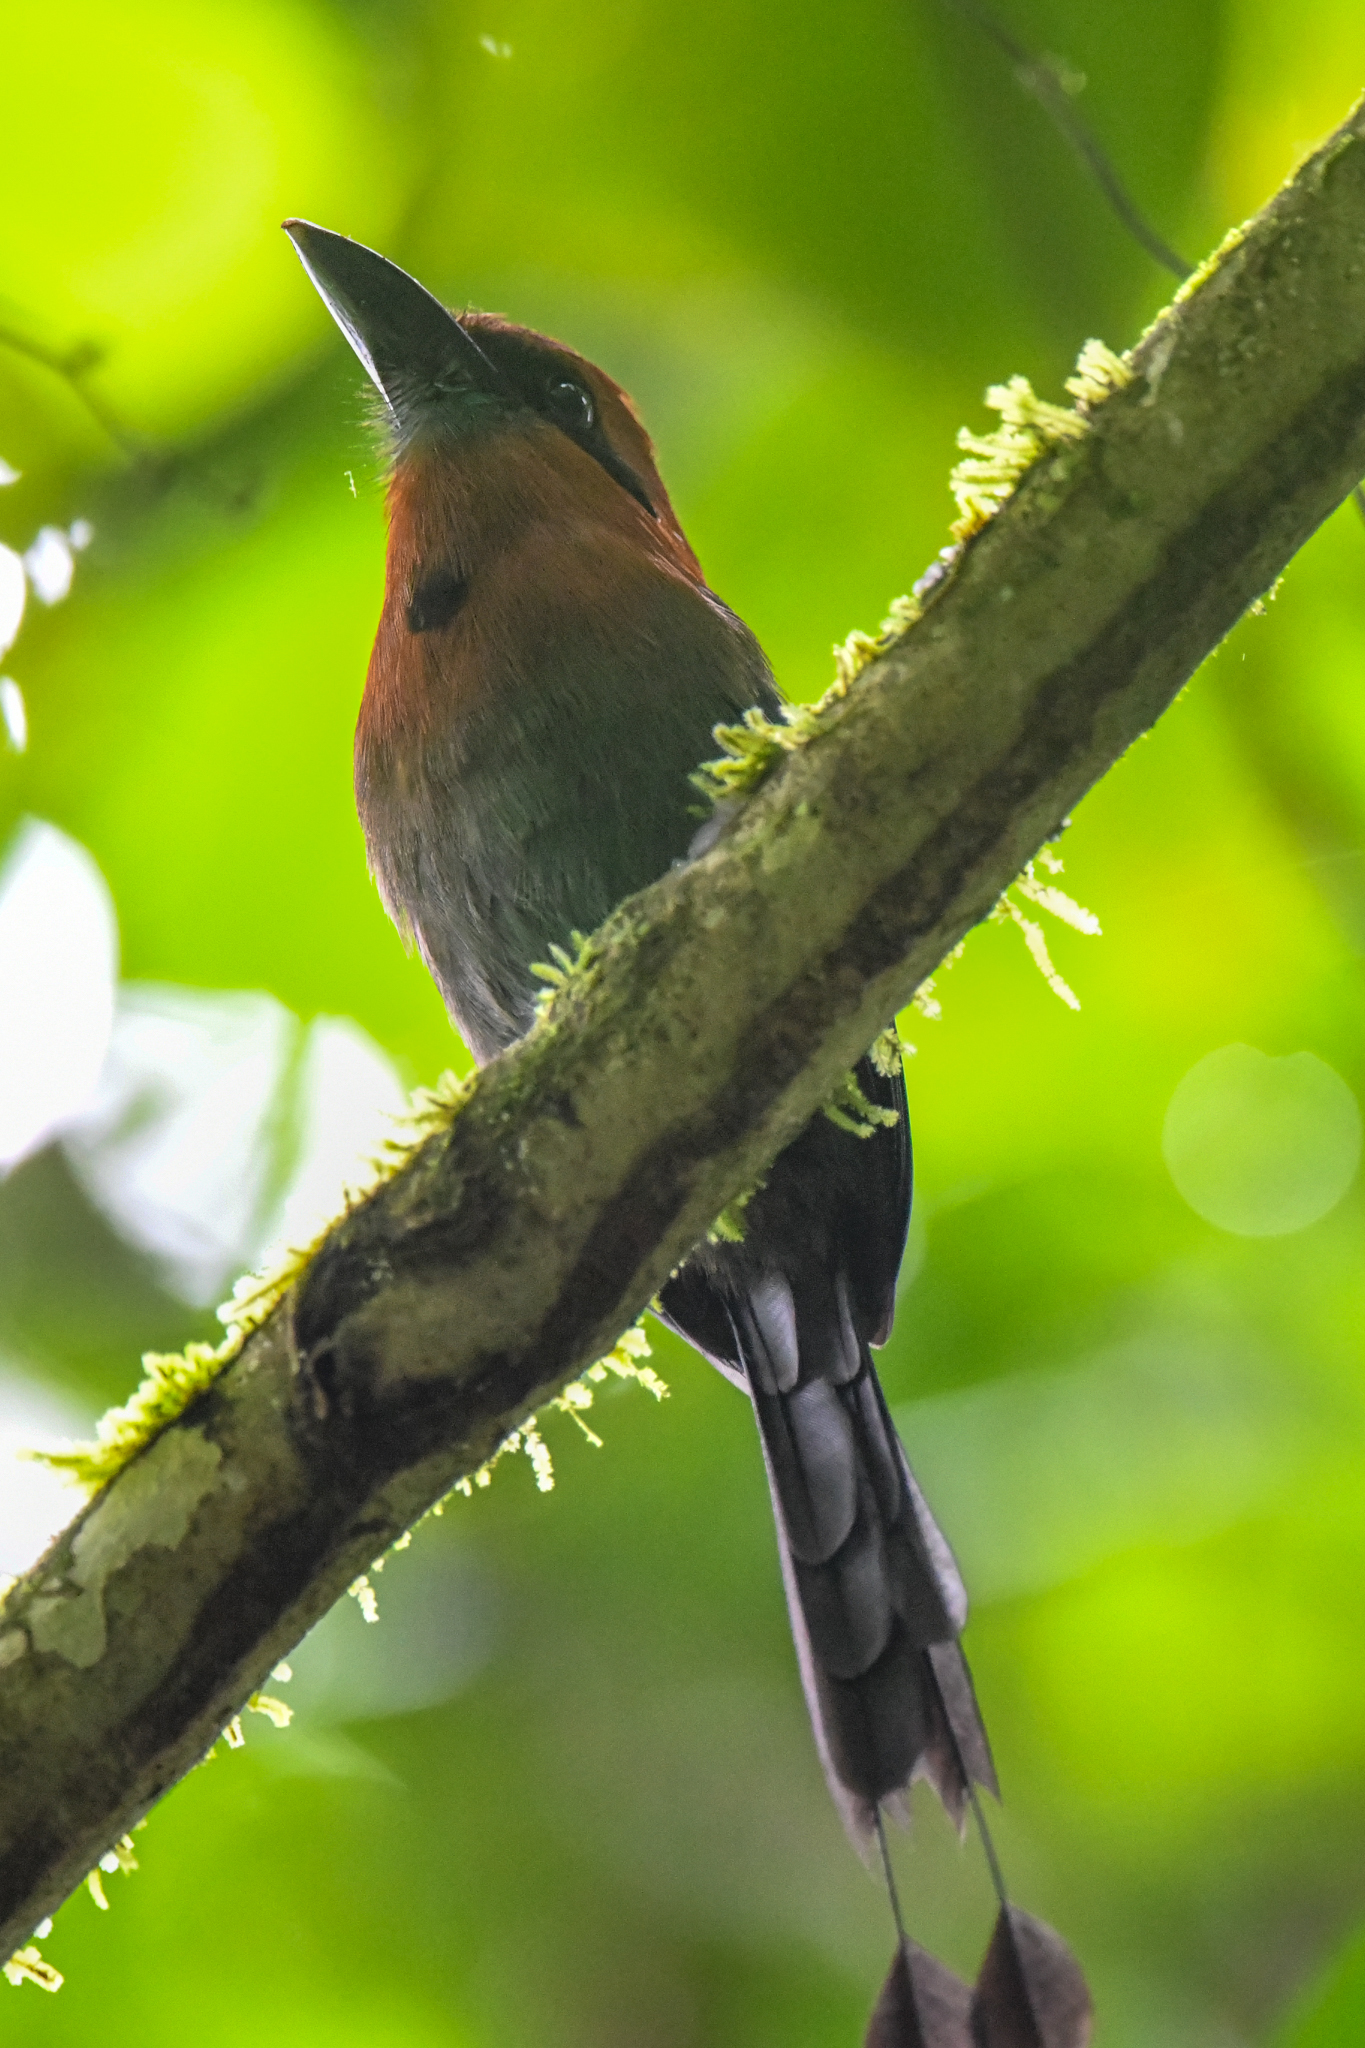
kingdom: Animalia
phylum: Chordata
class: Aves
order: Coraciiformes
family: Momotidae
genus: Electron
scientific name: Electron platyrhynchum
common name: Broad-billed motmot
